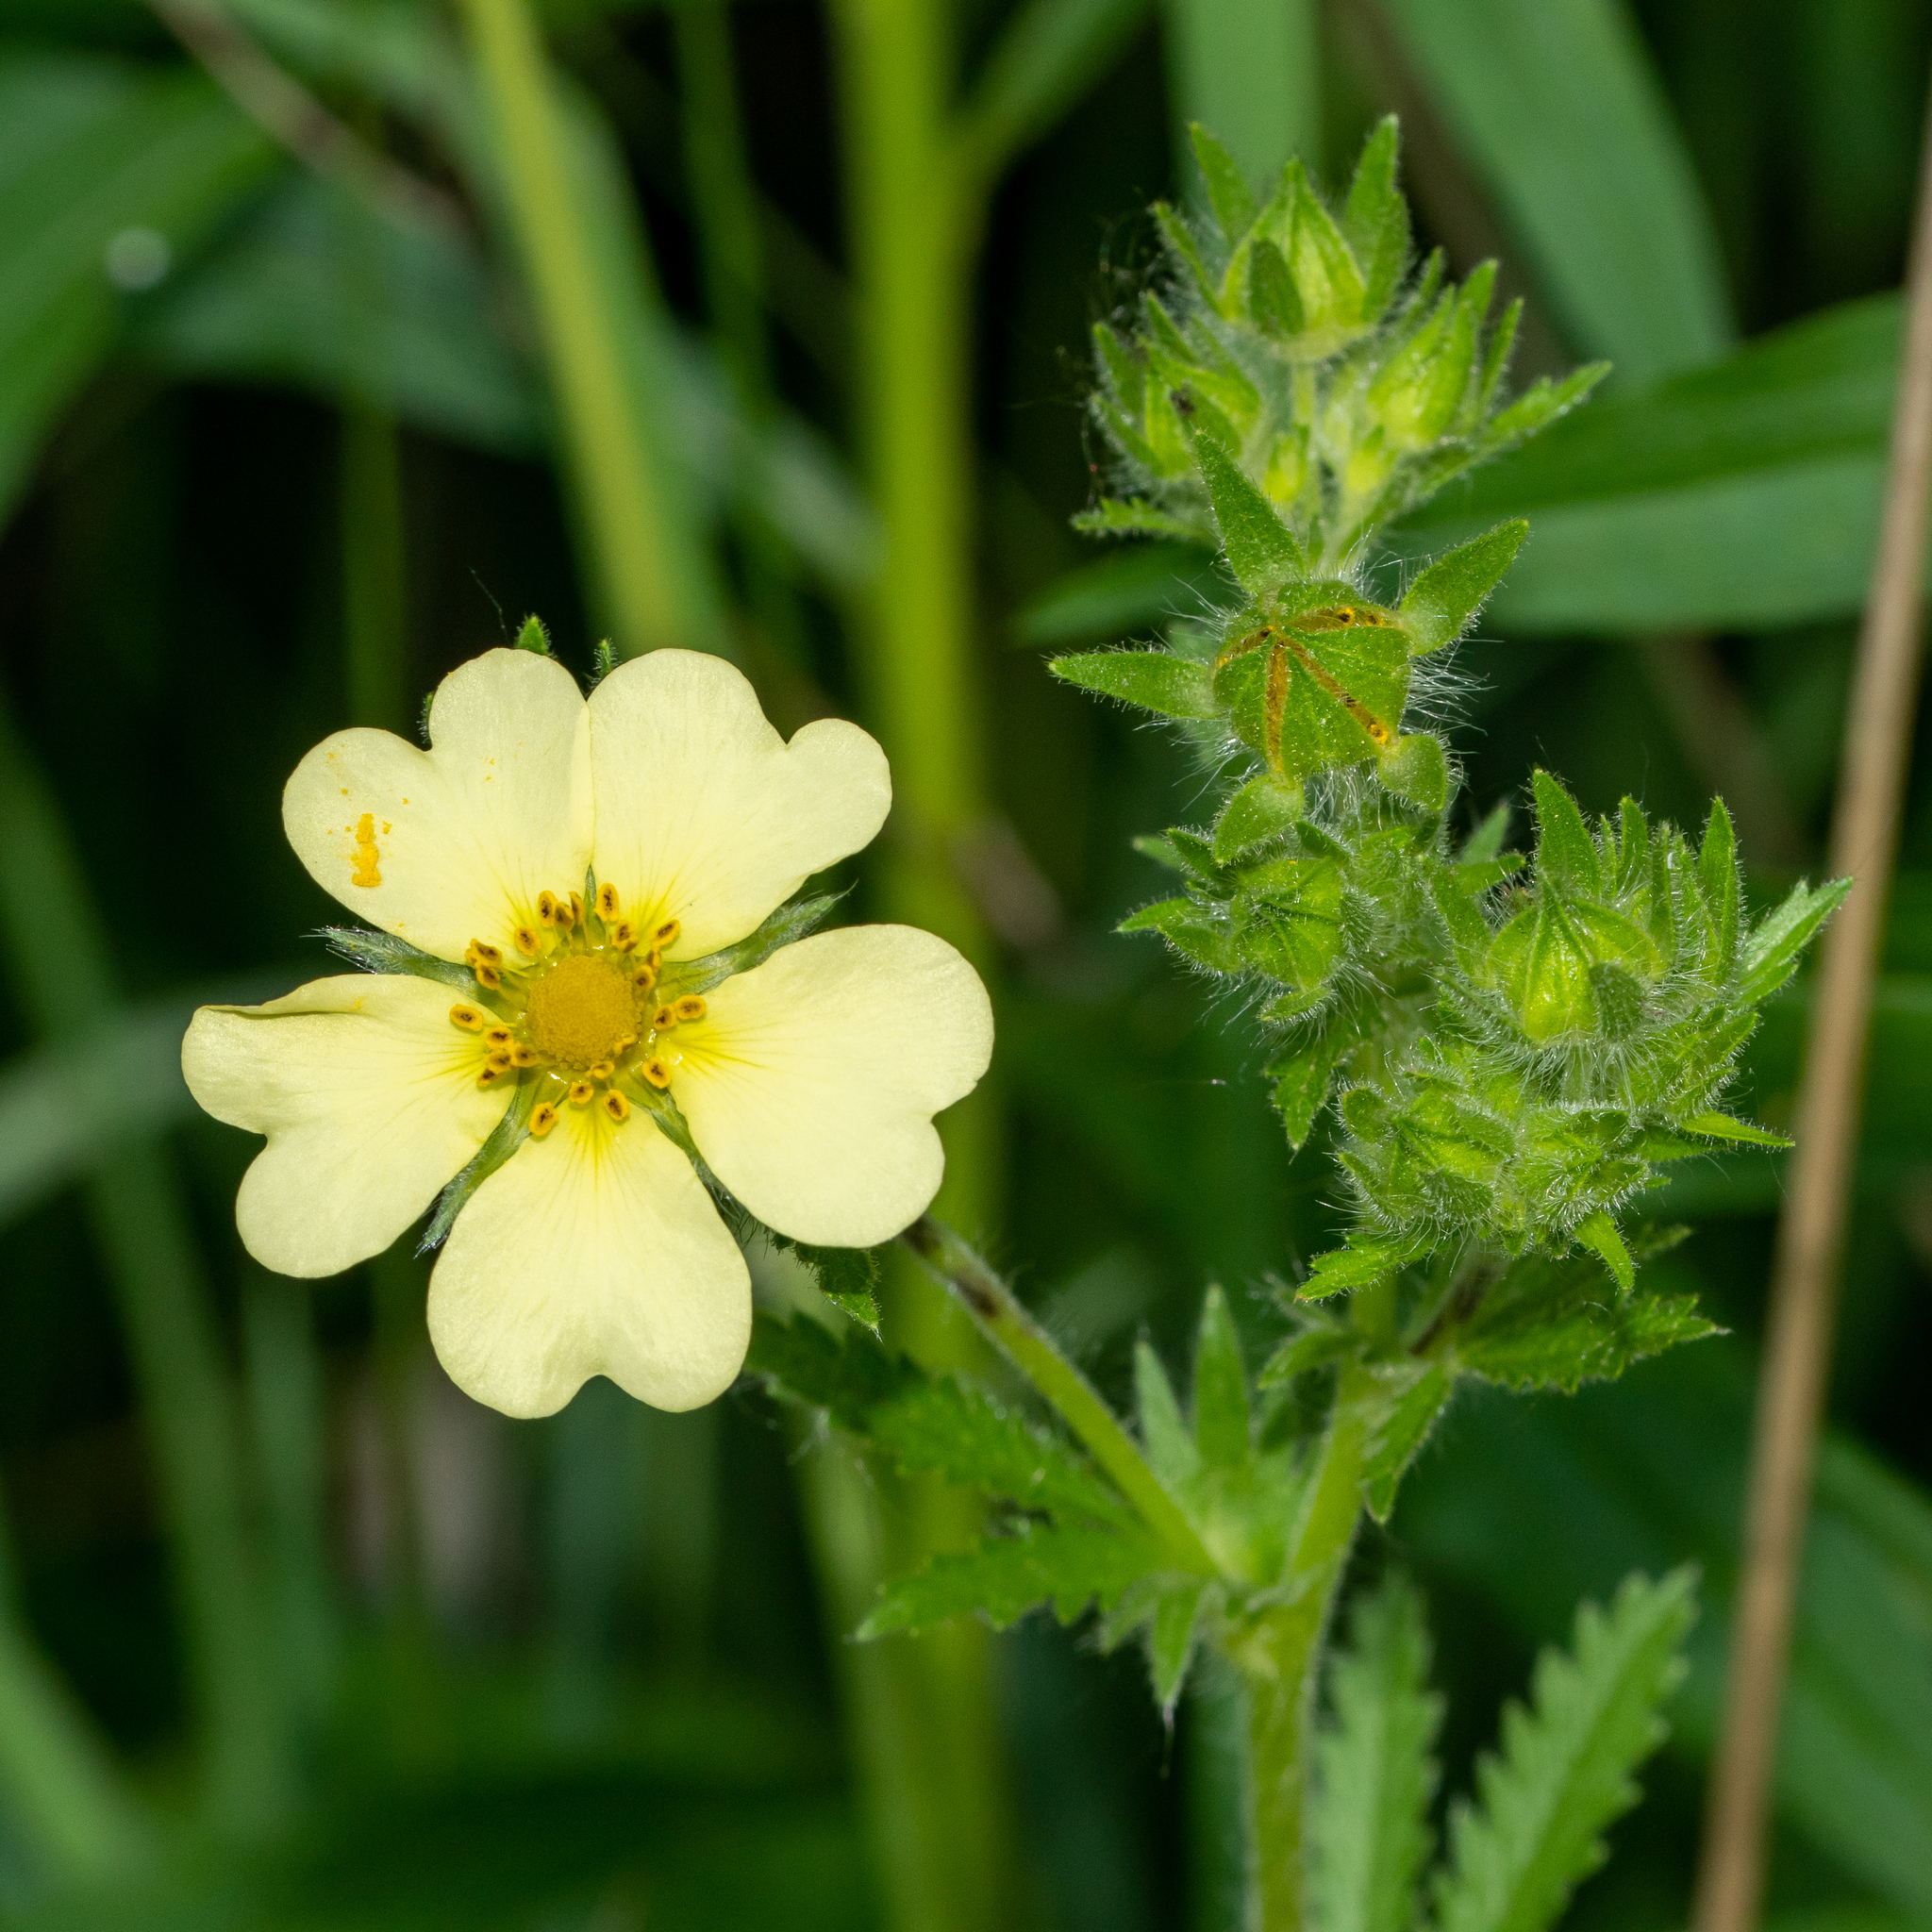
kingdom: Plantae
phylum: Tracheophyta
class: Magnoliopsida
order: Rosales
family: Rosaceae
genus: Potentilla
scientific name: Potentilla recta
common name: Sulphur cinquefoil
